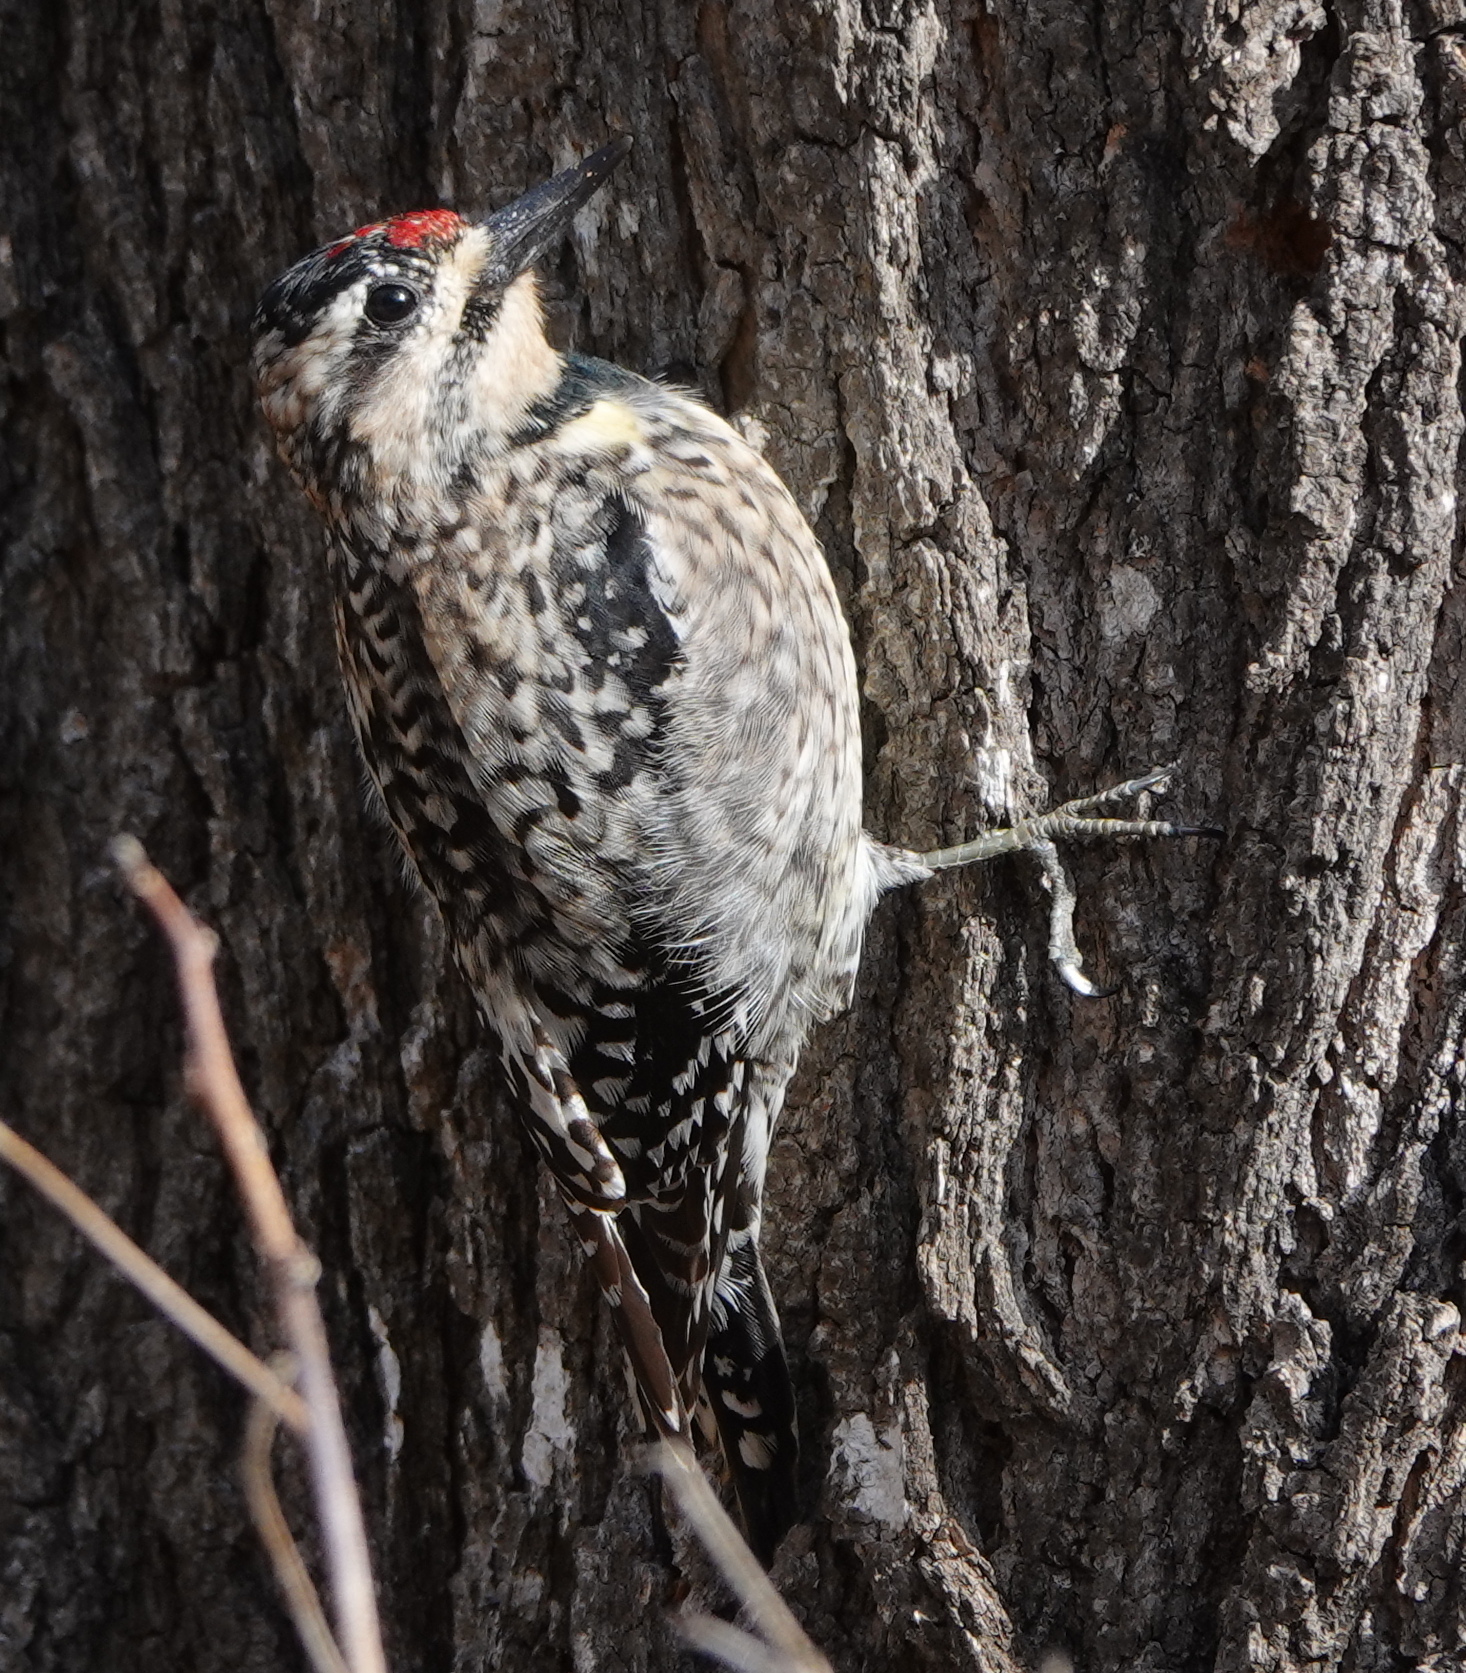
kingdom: Animalia
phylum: Chordata
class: Aves
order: Piciformes
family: Picidae
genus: Sphyrapicus
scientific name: Sphyrapicus varius
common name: Yellow-bellied sapsucker
